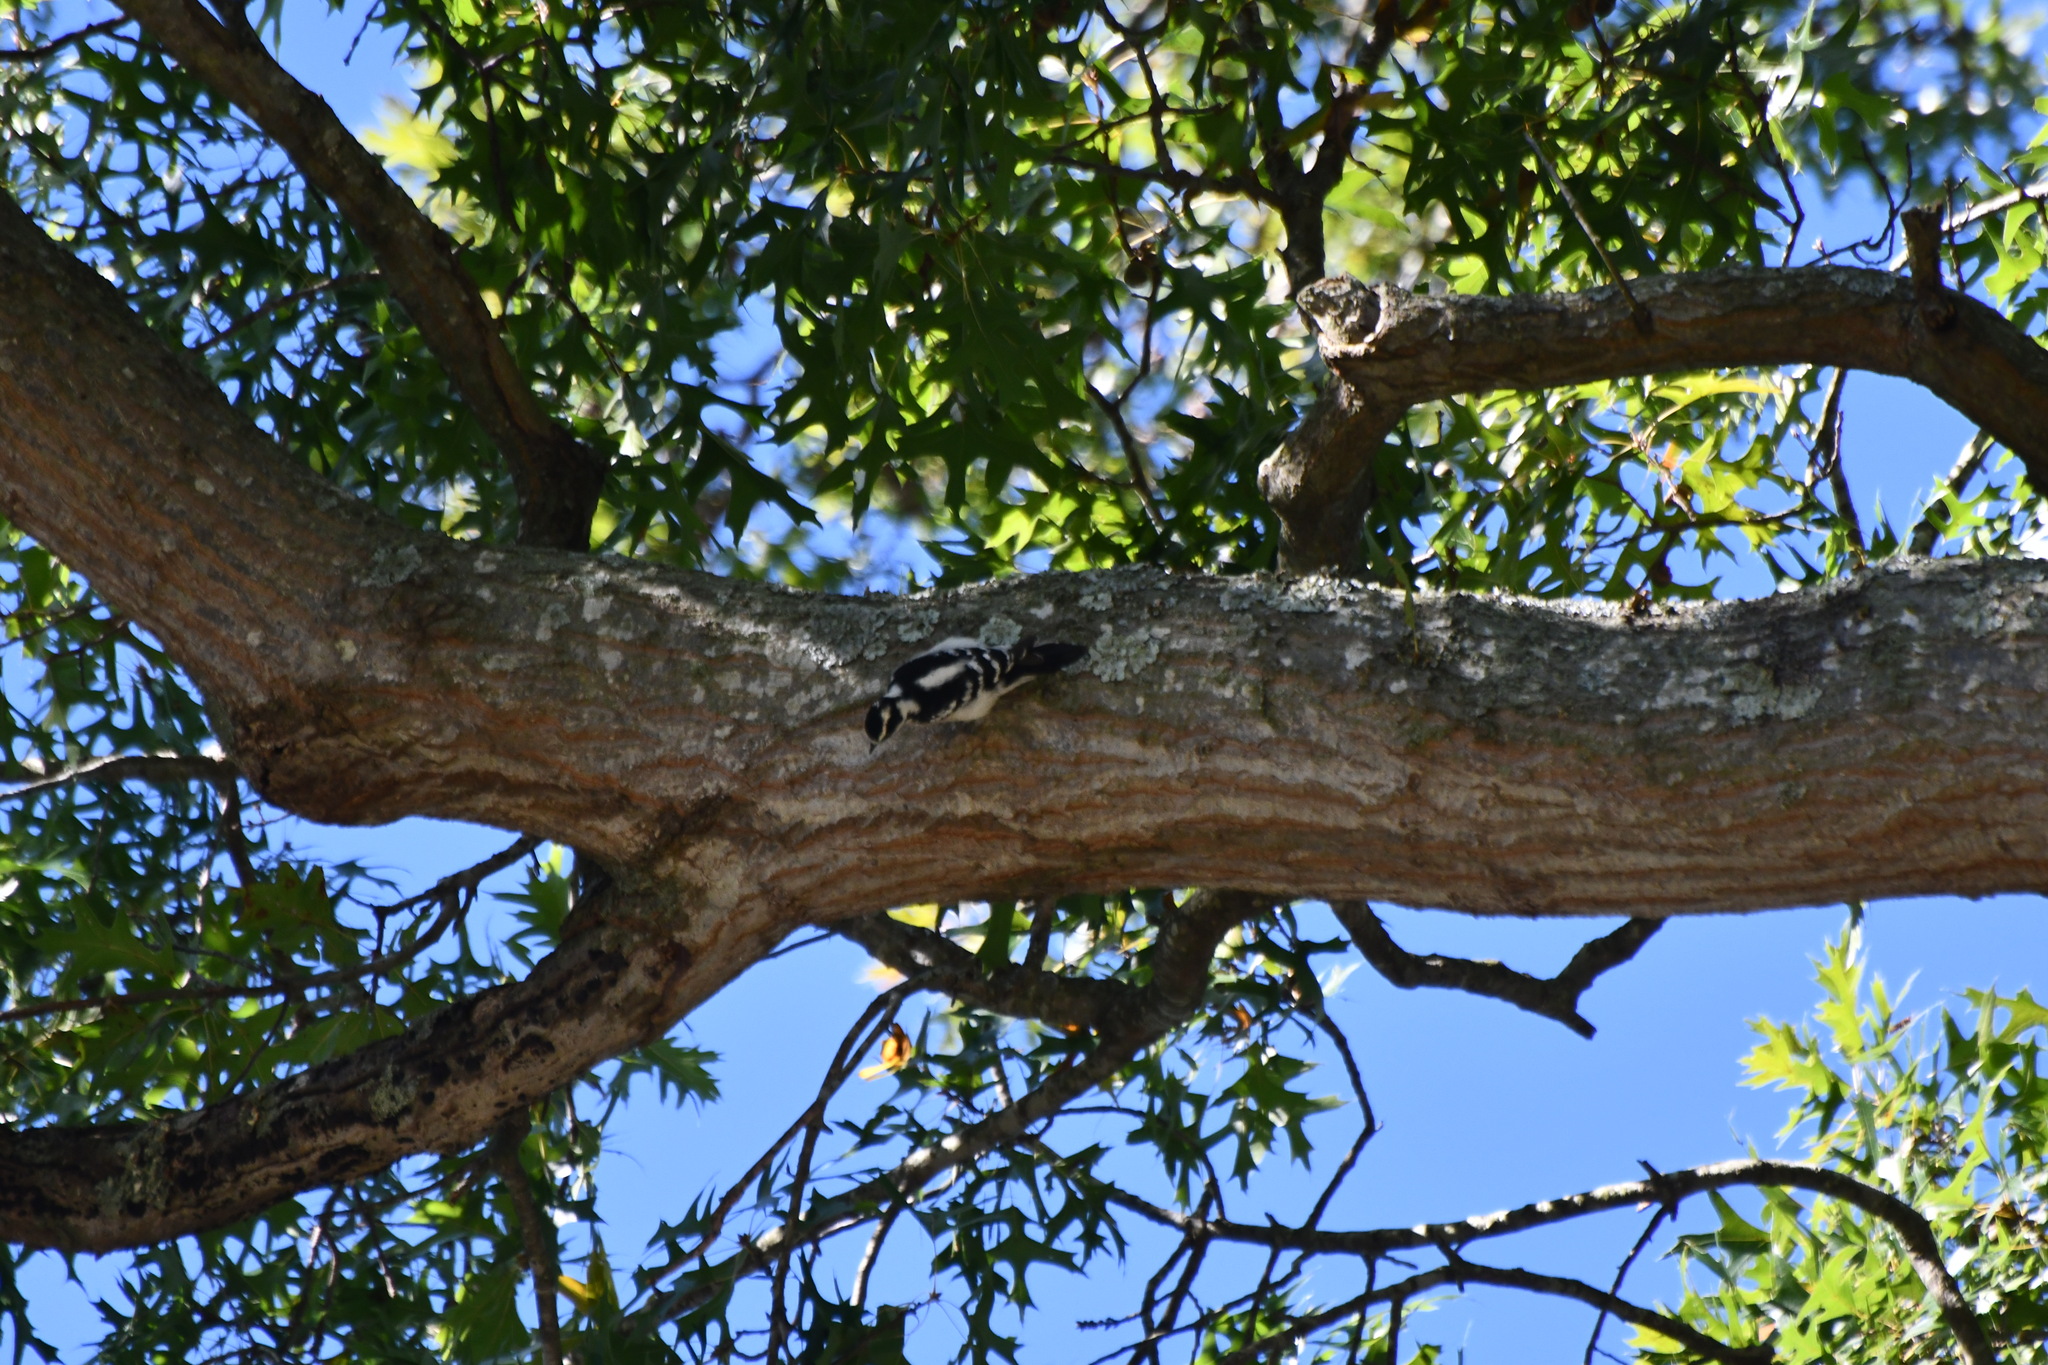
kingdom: Animalia
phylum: Chordata
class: Aves
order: Piciformes
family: Picidae
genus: Dryobates
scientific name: Dryobates pubescens
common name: Downy woodpecker
